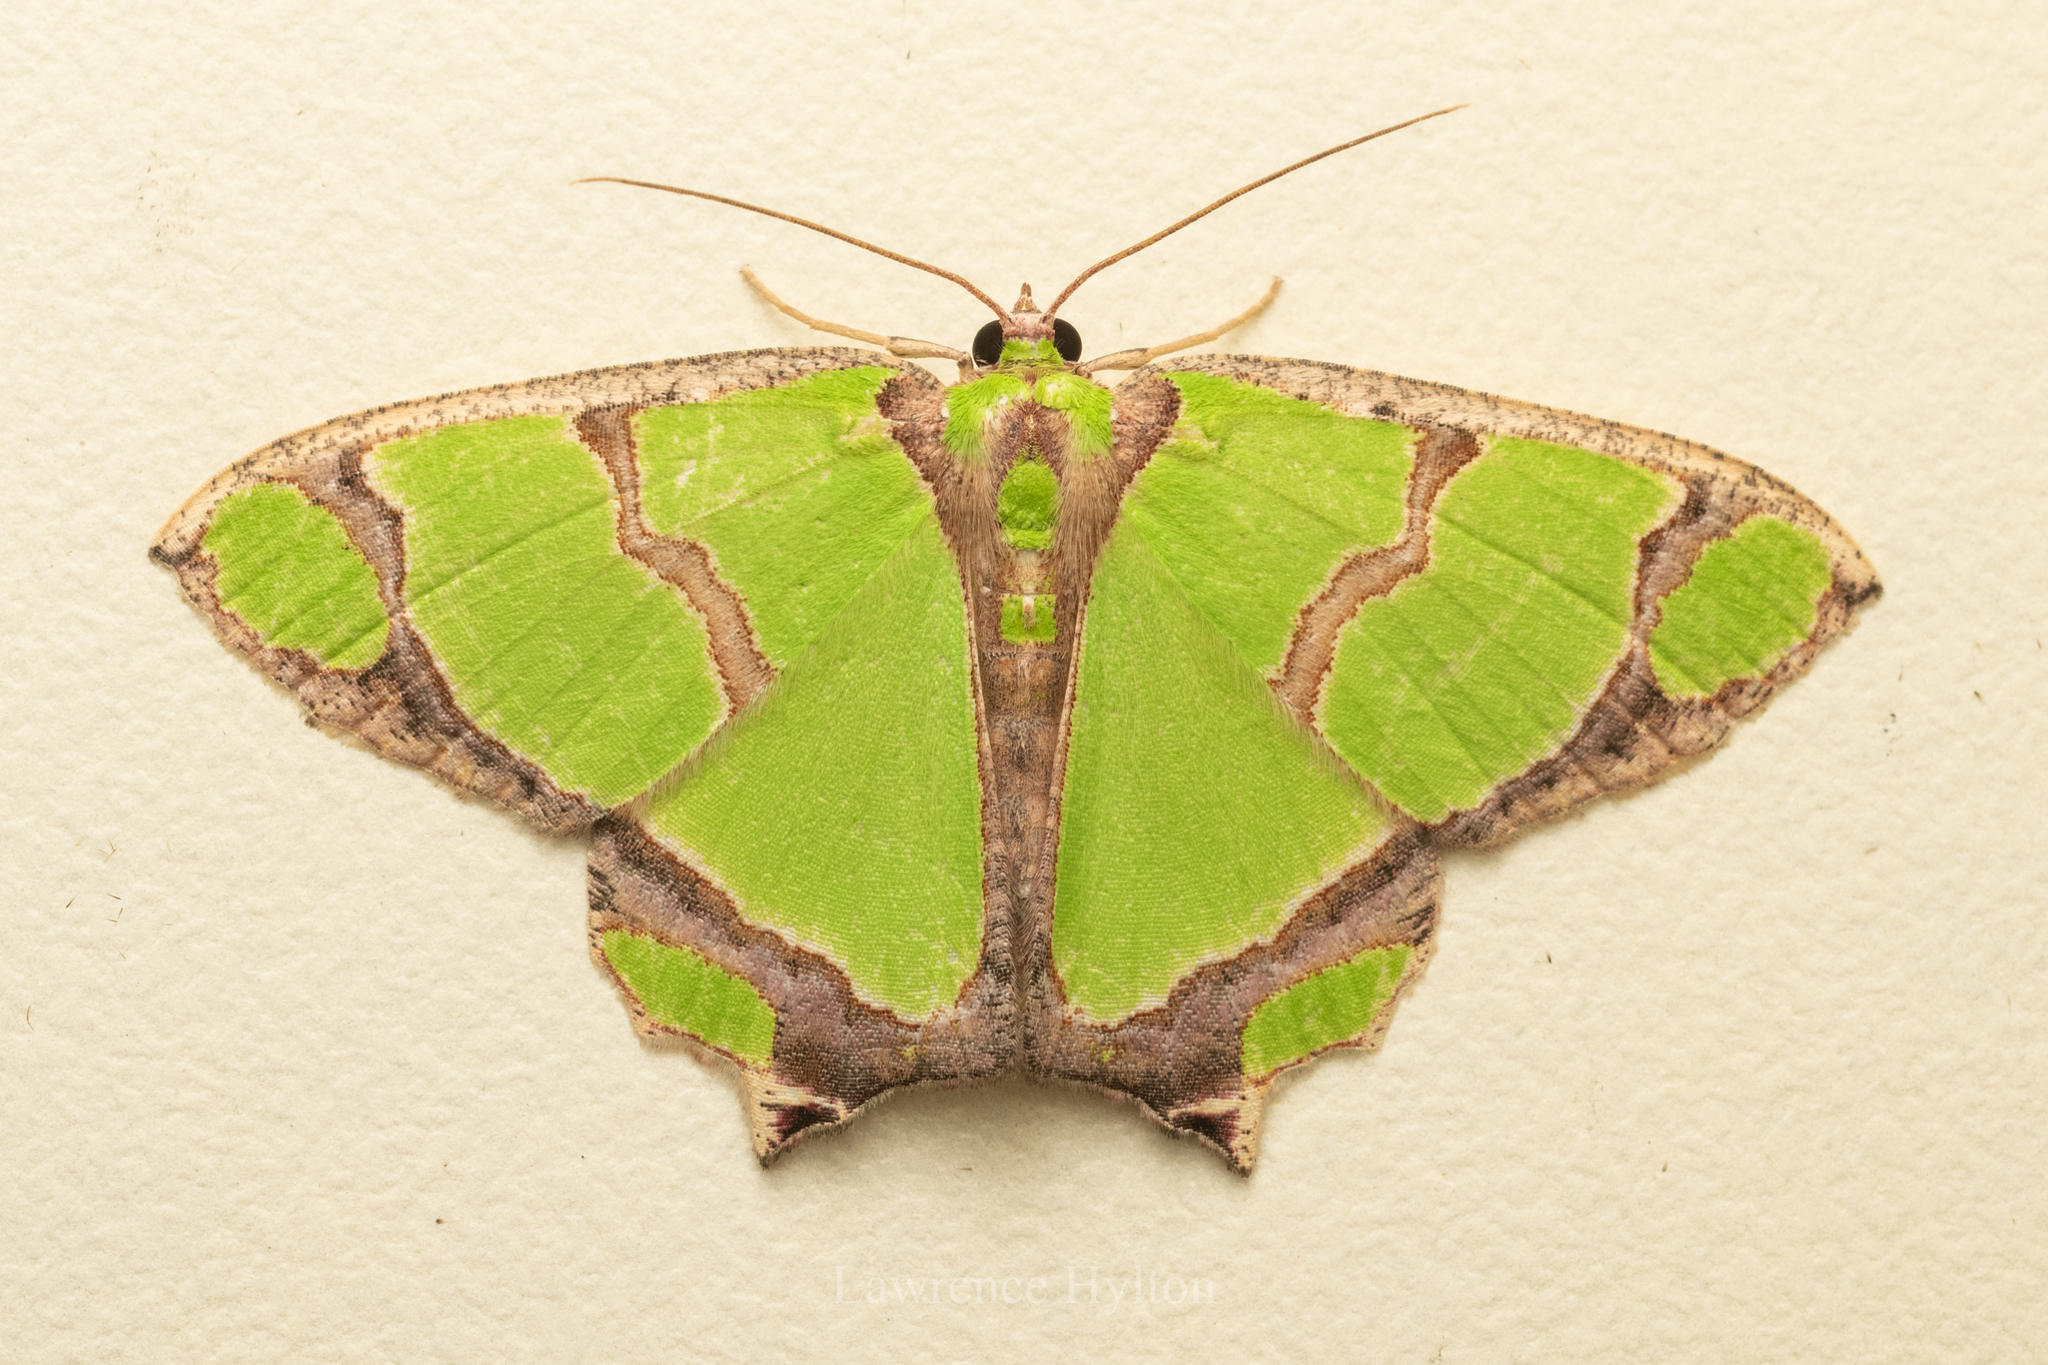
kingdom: Animalia
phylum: Arthropoda
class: Insecta
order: Lepidoptera
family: Geometridae
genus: Agathia
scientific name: Agathia carissima
